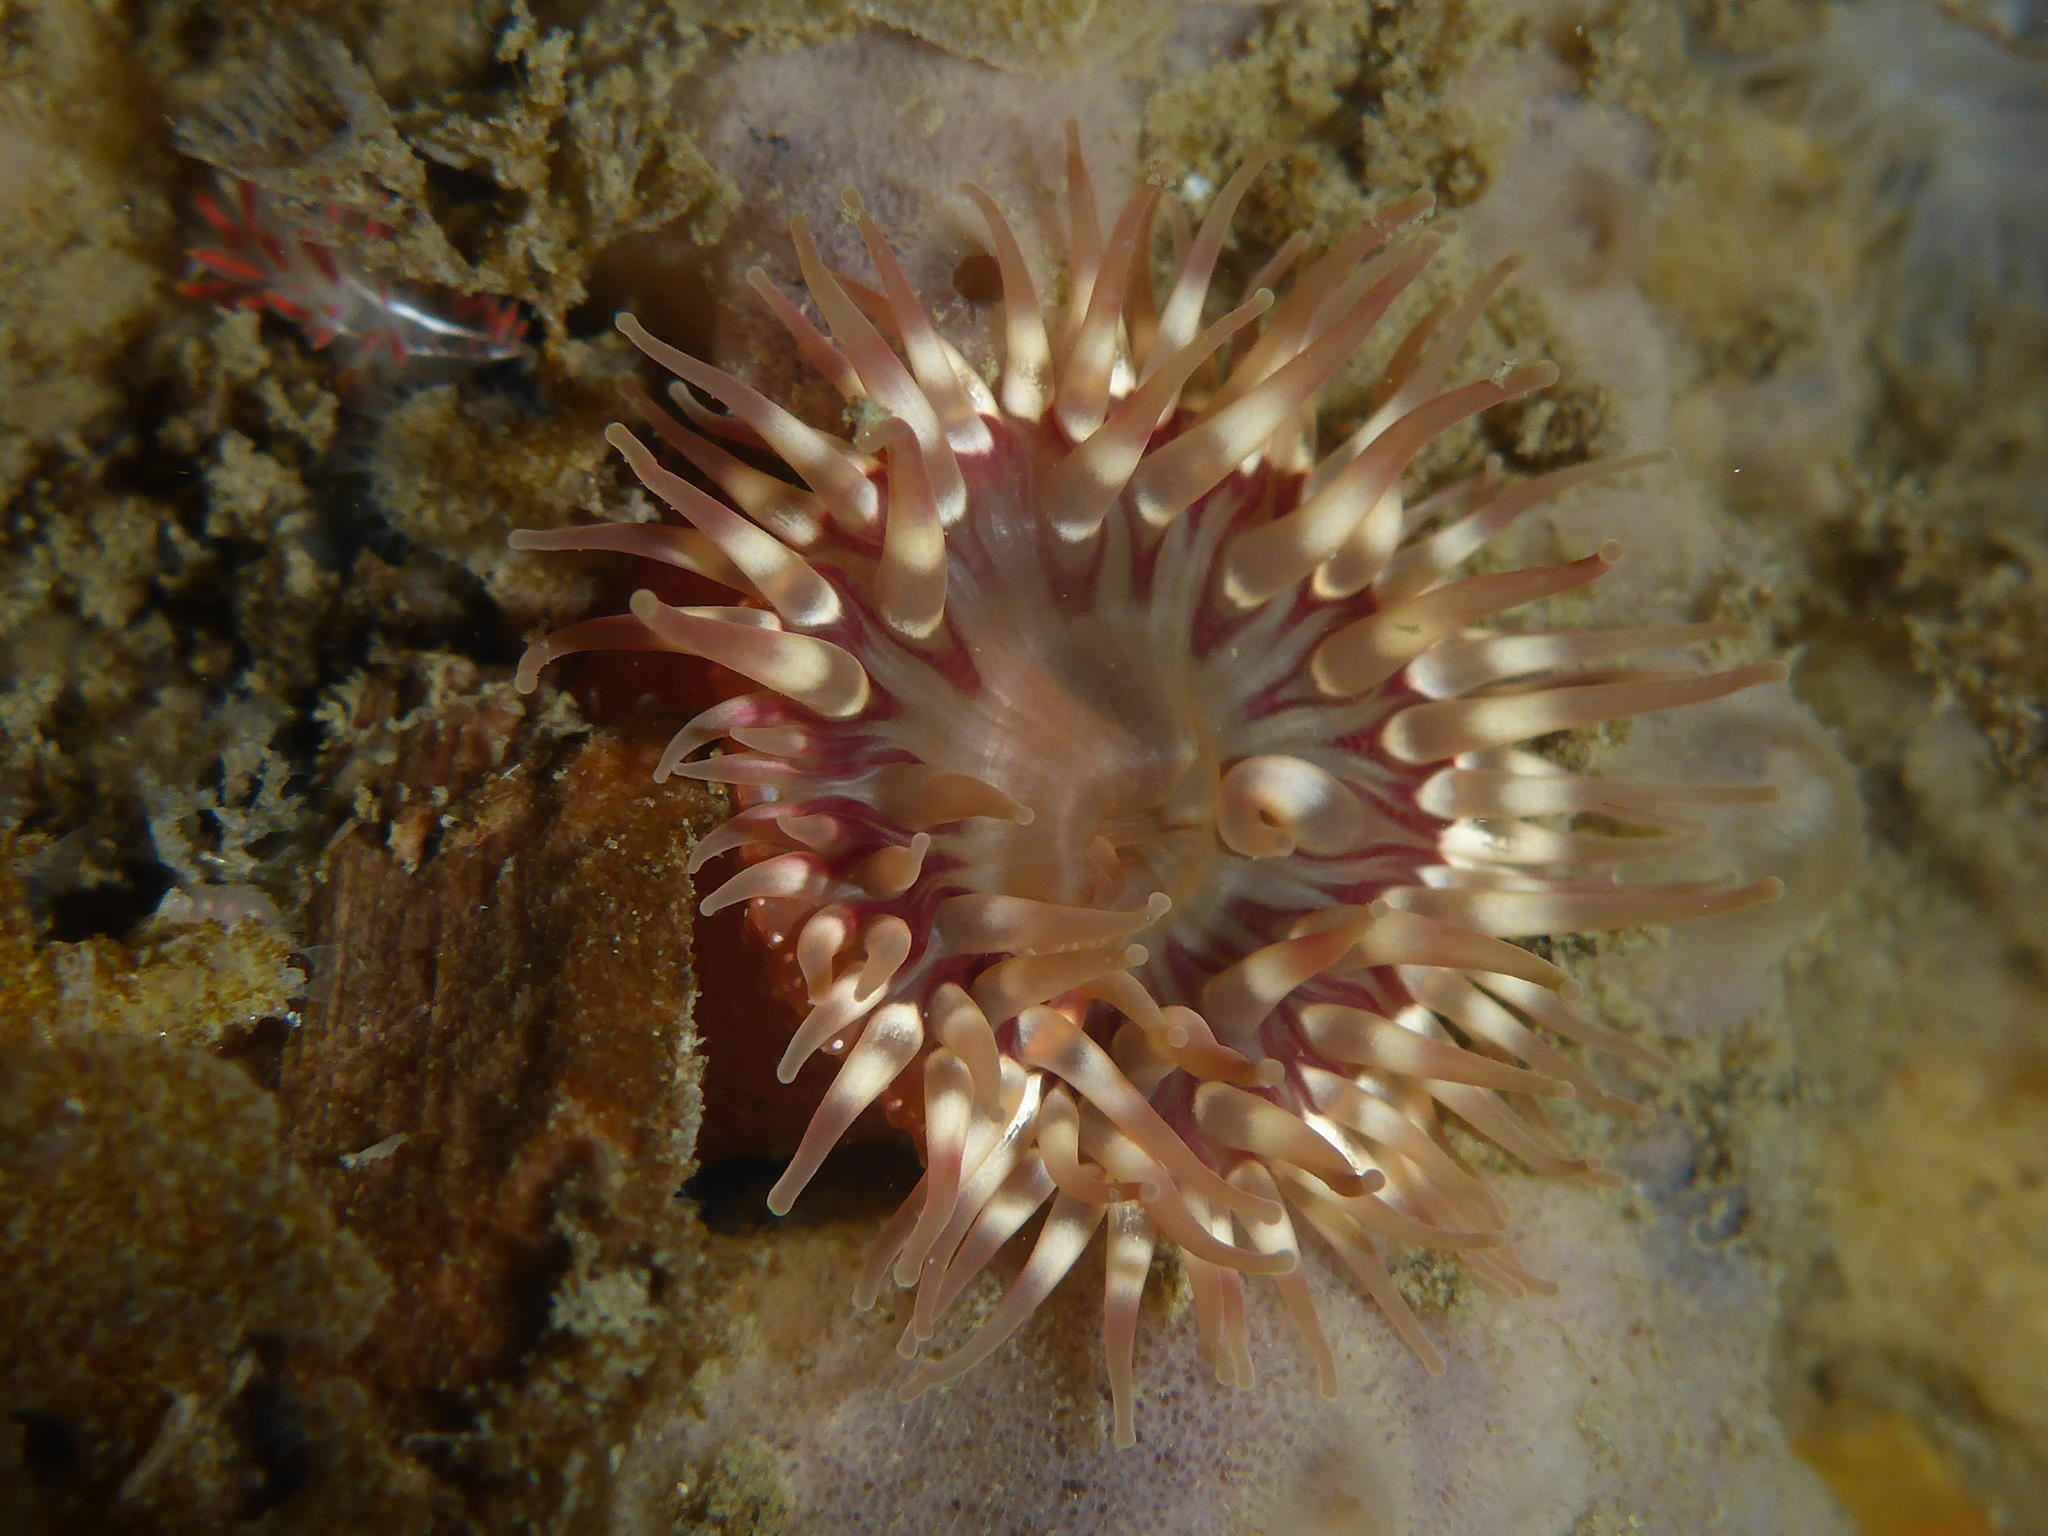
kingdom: Animalia
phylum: Cnidaria
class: Anthozoa
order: Actiniaria
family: Actiniidae
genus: Urticina
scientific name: Urticina grebelnyi
